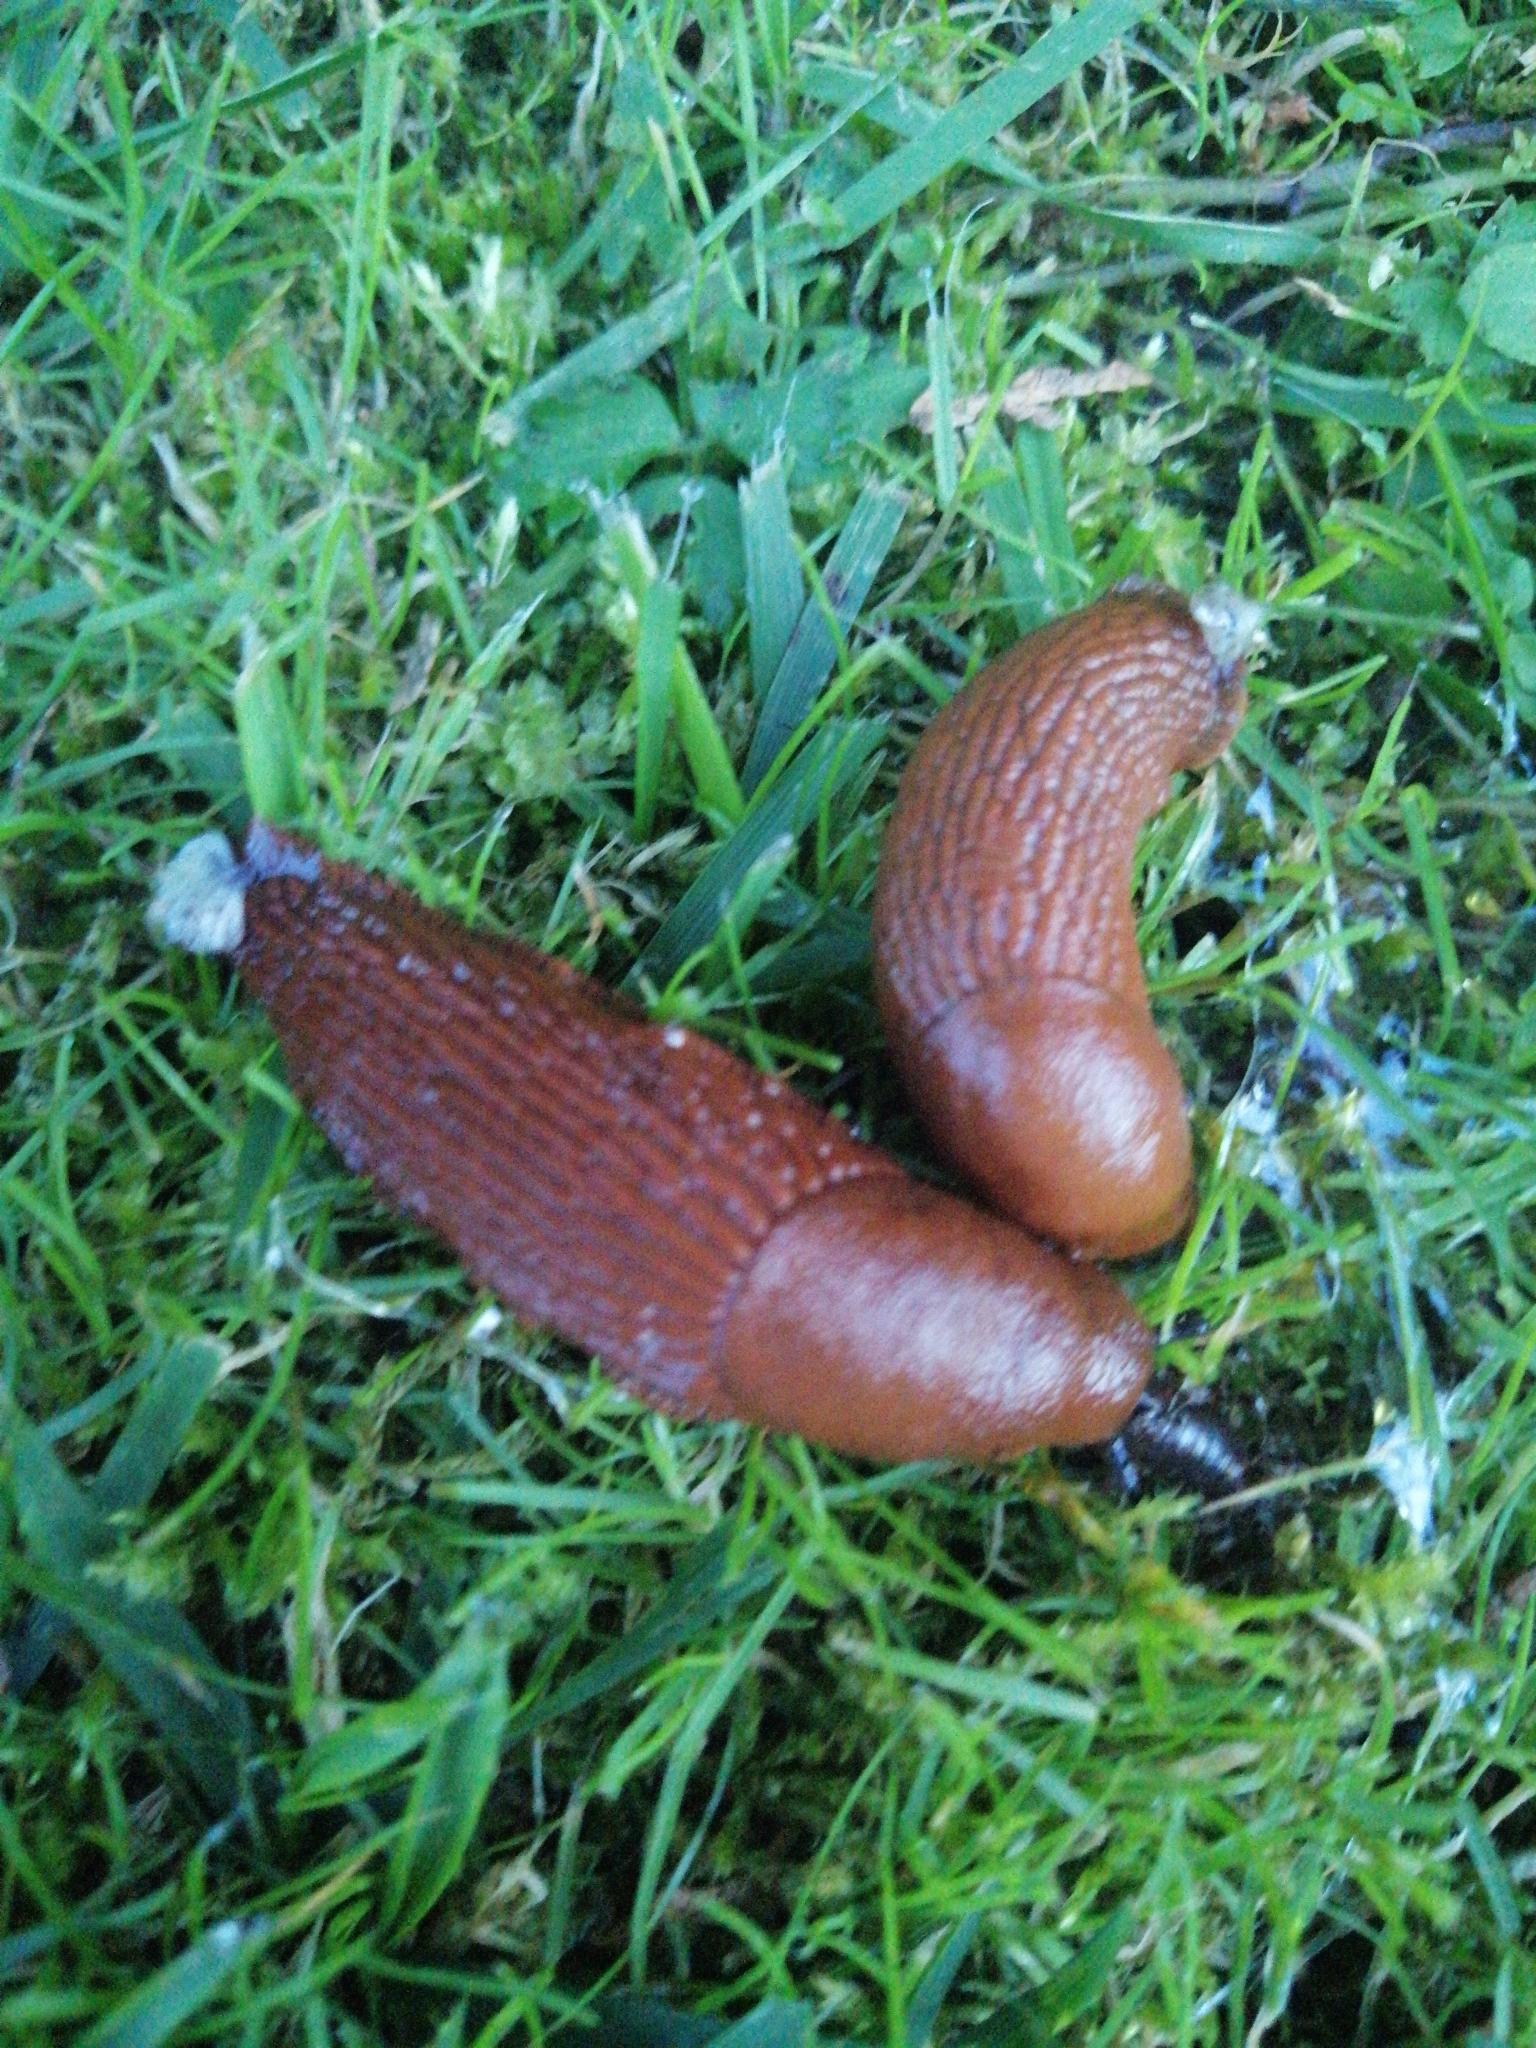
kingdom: Animalia
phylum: Mollusca
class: Gastropoda
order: Stylommatophora
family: Arionidae
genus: Arion
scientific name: Arion vulgaris
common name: Lusitanian slug
